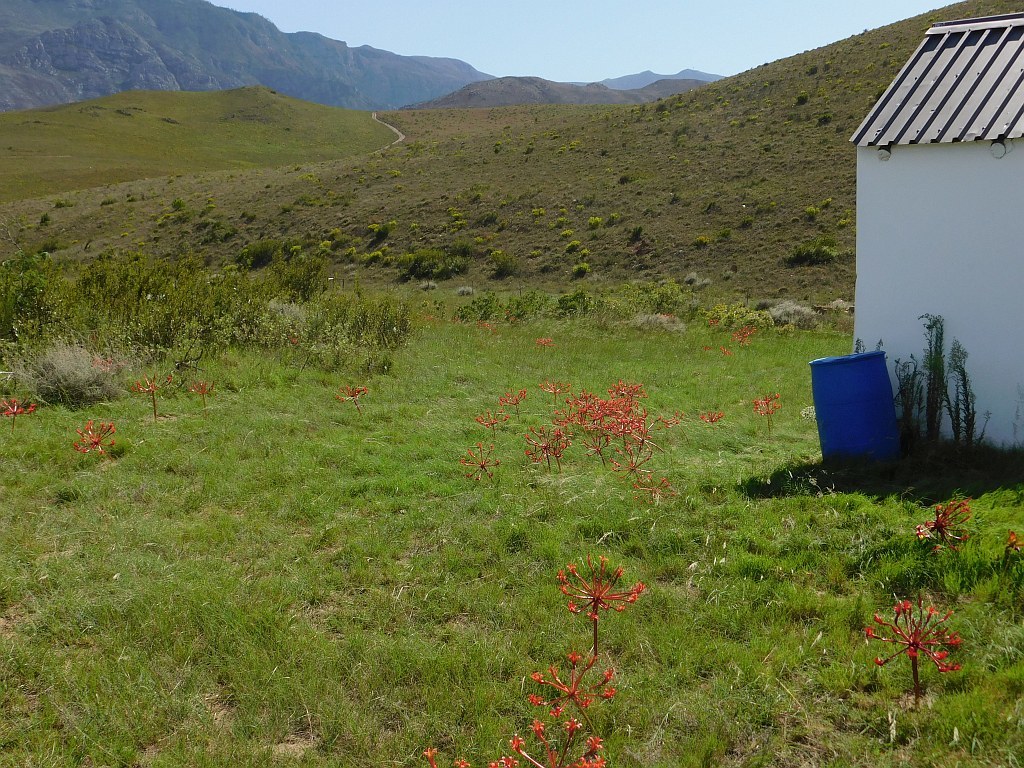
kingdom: Plantae
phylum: Tracheophyta
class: Liliopsida
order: Asparagales
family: Amaryllidaceae
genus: Brunsvigia
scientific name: Brunsvigia orientalis
